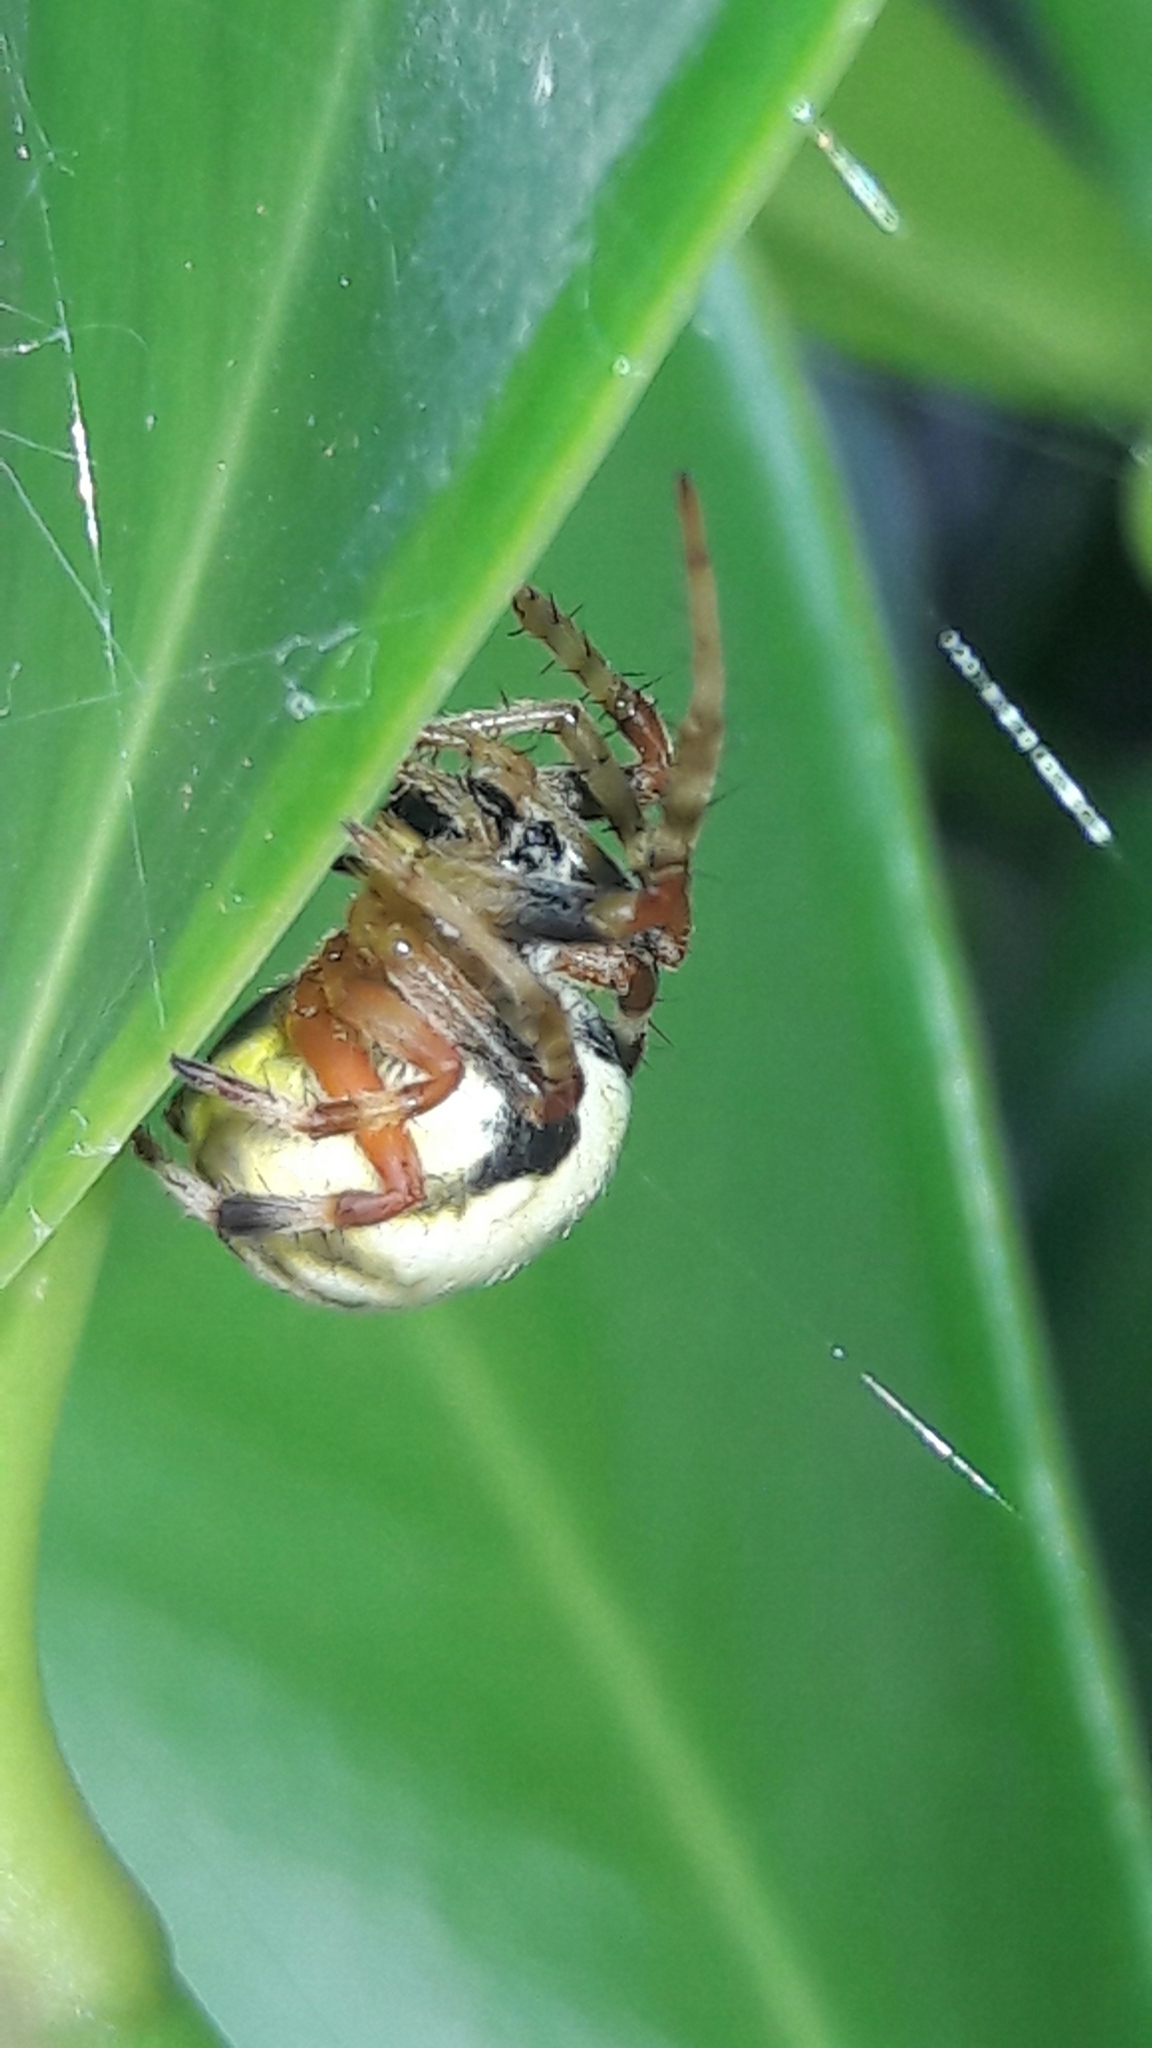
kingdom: Animalia
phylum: Arthropoda
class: Arachnida
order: Araneae
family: Araneidae
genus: Araneus
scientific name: Araneus horizonte
